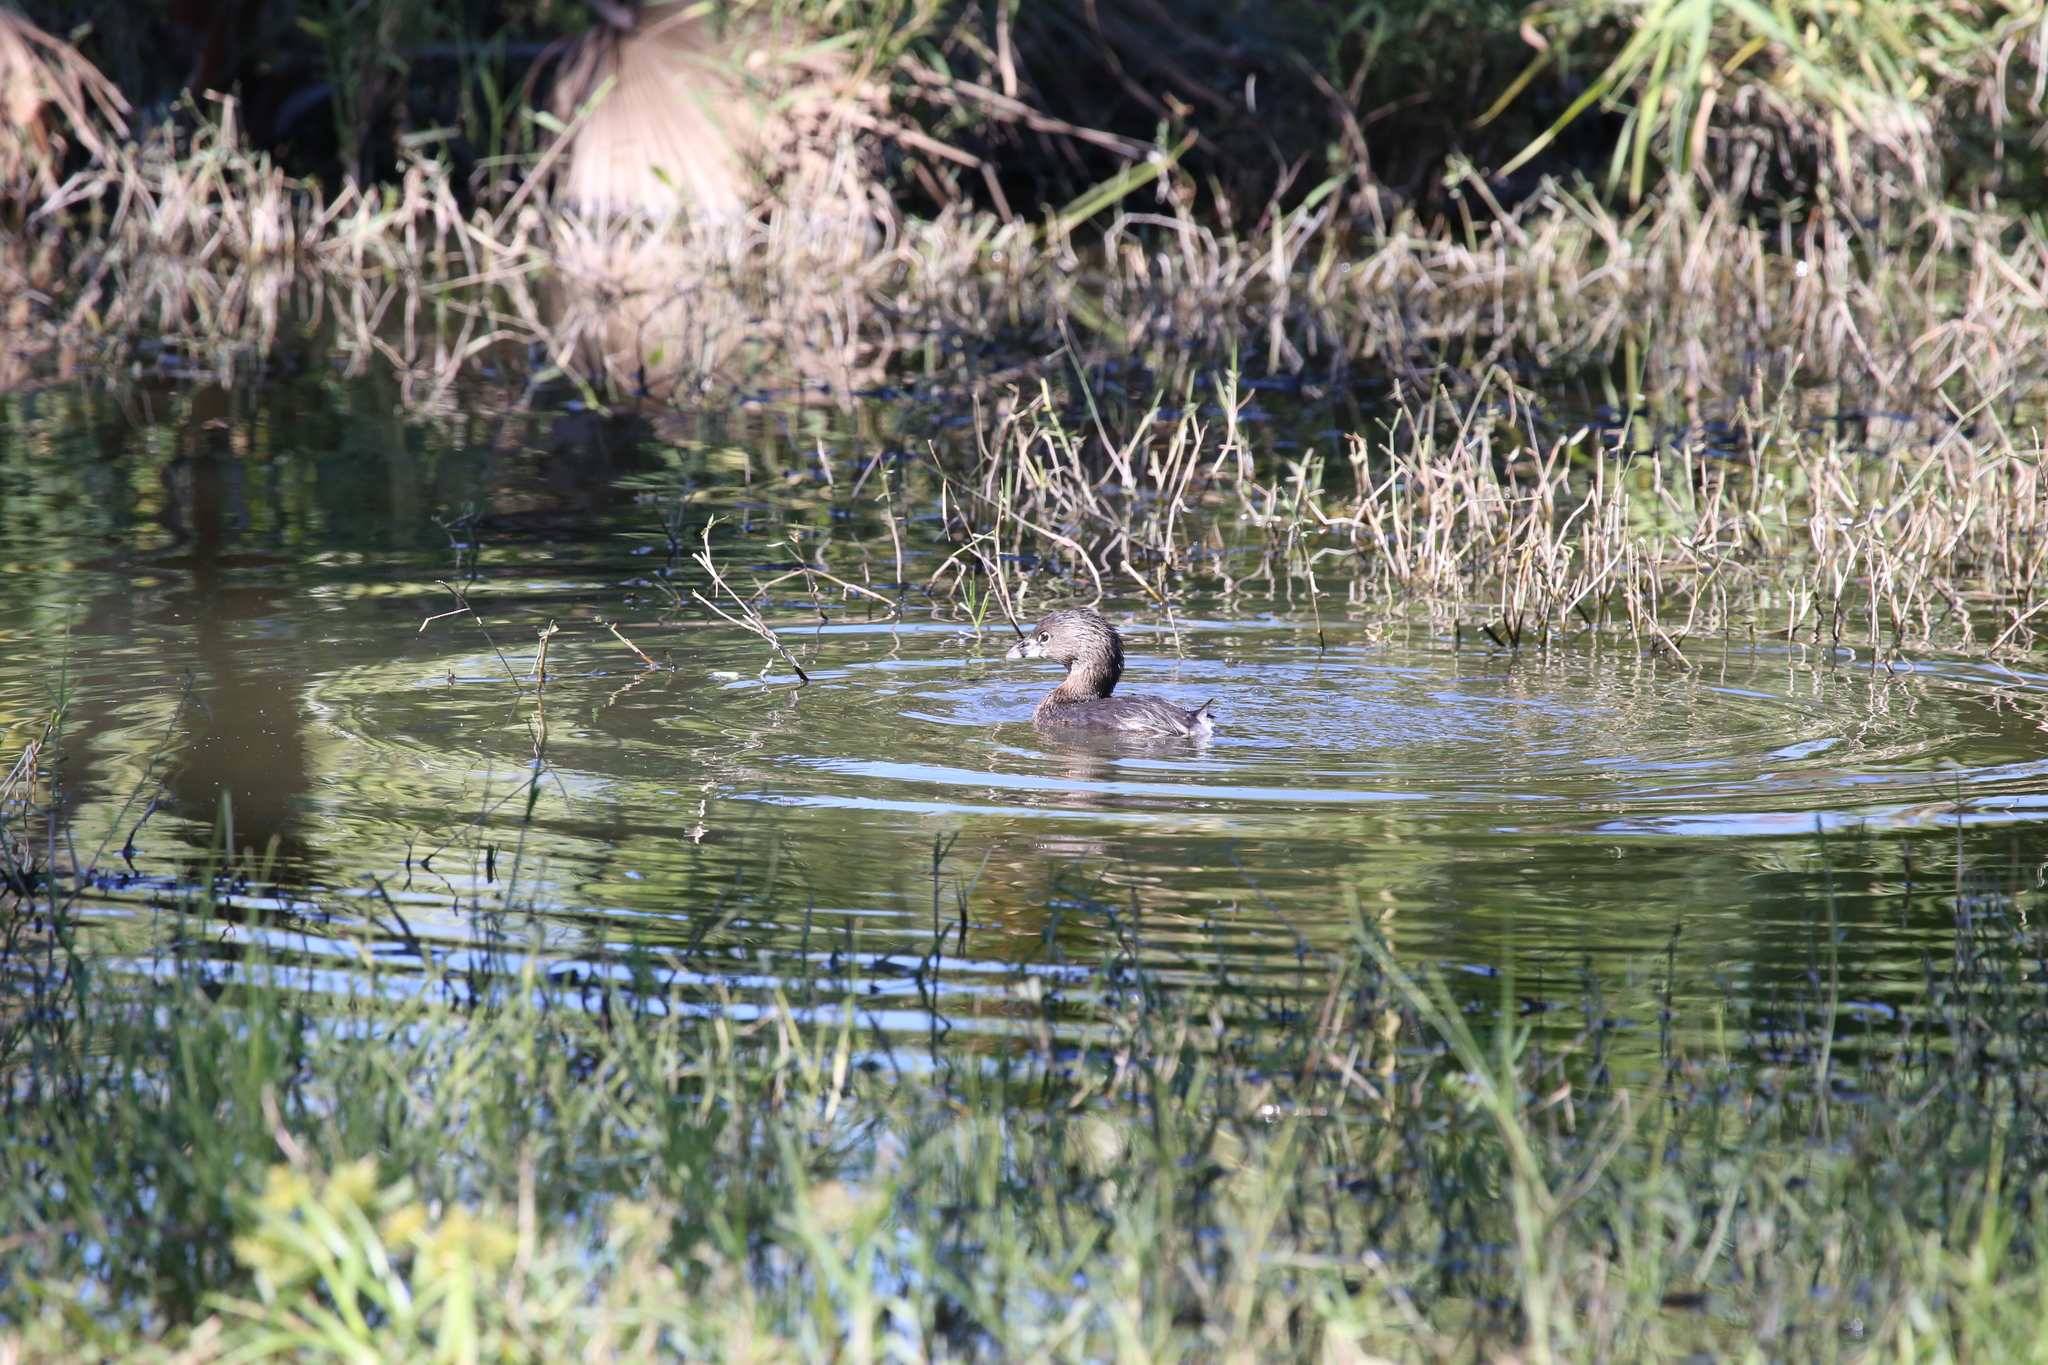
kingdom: Animalia
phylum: Chordata
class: Aves
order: Podicipediformes
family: Podicipedidae
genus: Podilymbus
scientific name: Podilymbus podiceps
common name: Pied-billed grebe
